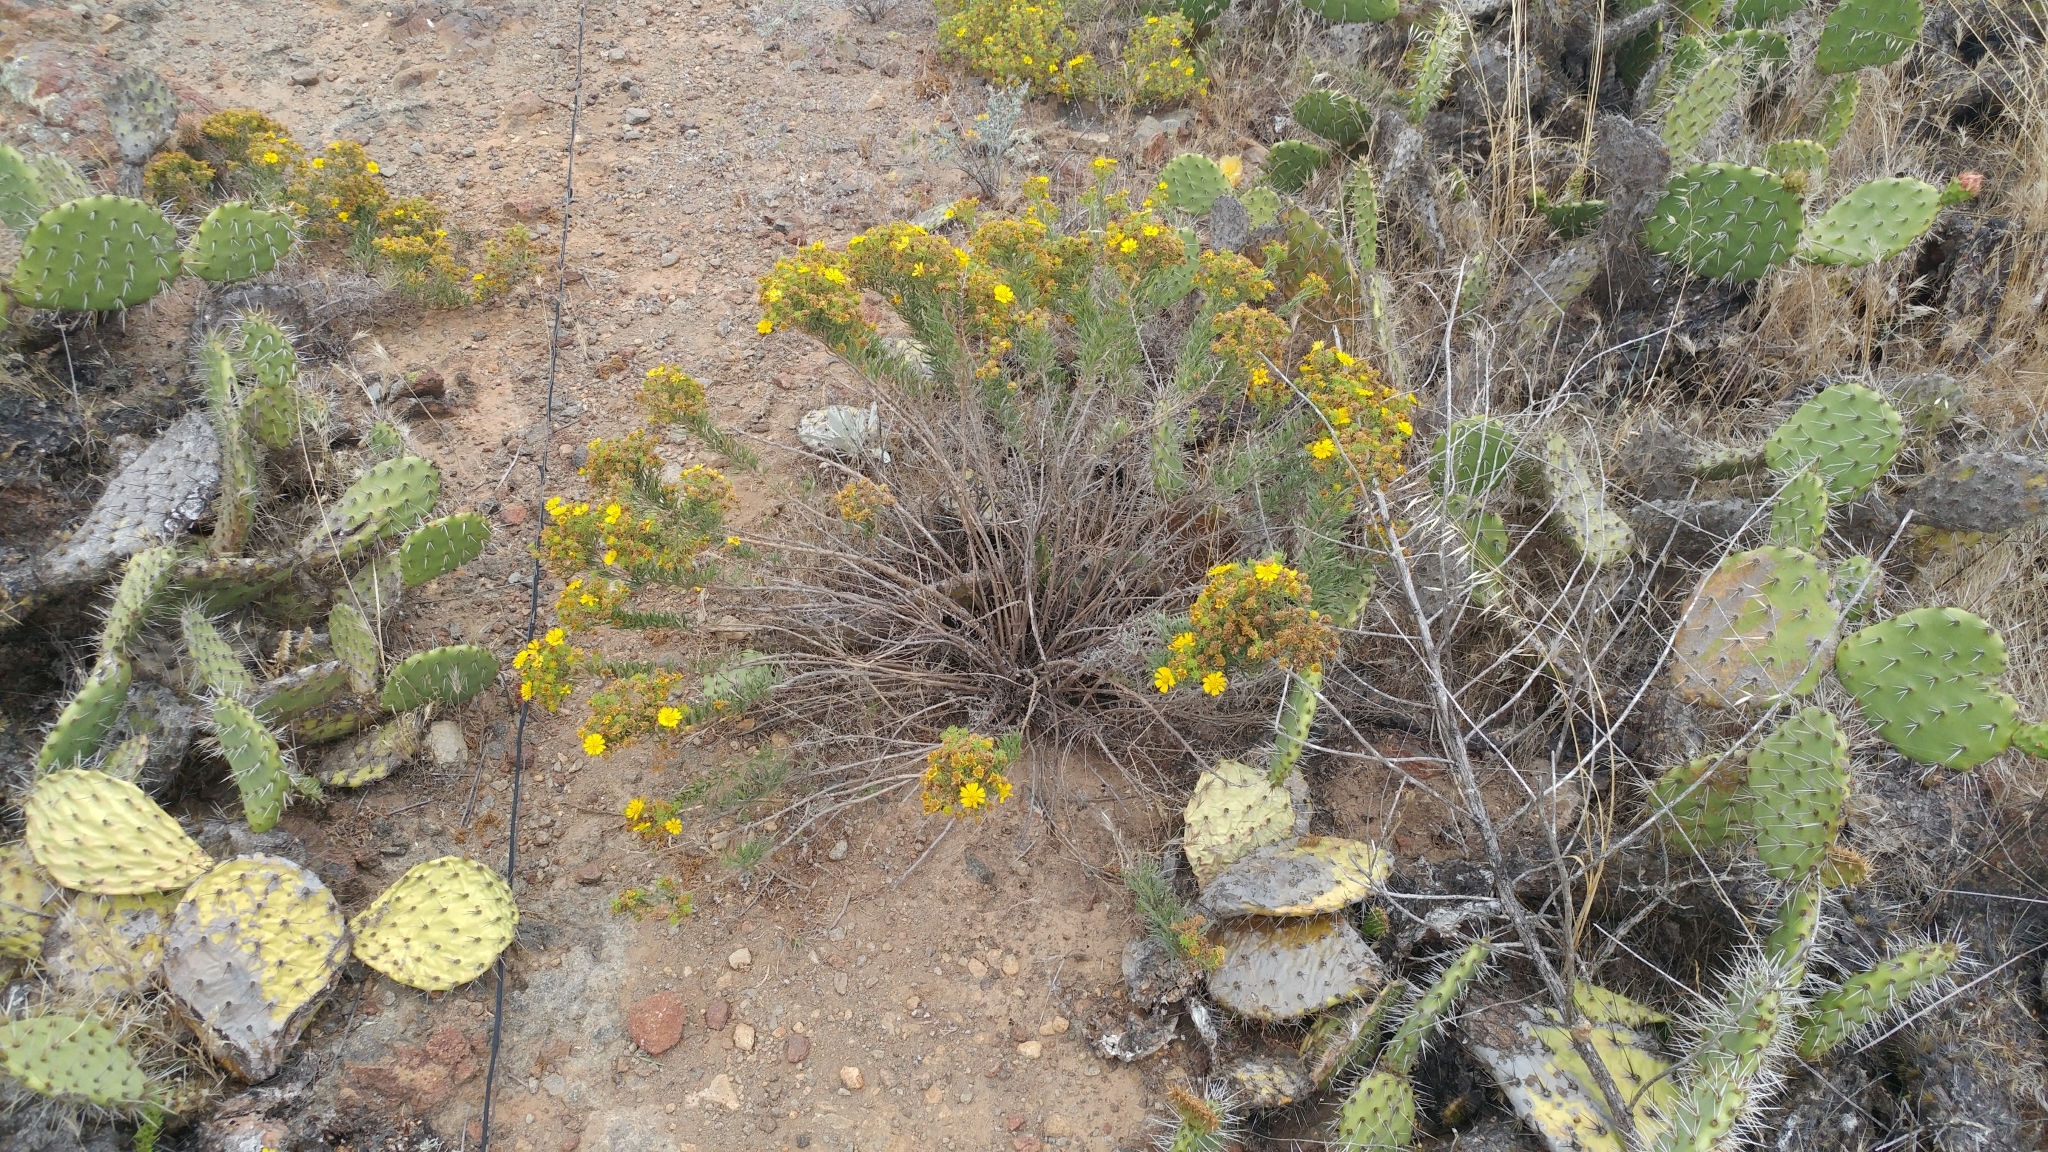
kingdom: Plantae
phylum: Tracheophyta
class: Magnoliopsida
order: Asterales
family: Asteraceae
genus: Deinandra
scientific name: Deinandra clementina
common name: Island tarplant
